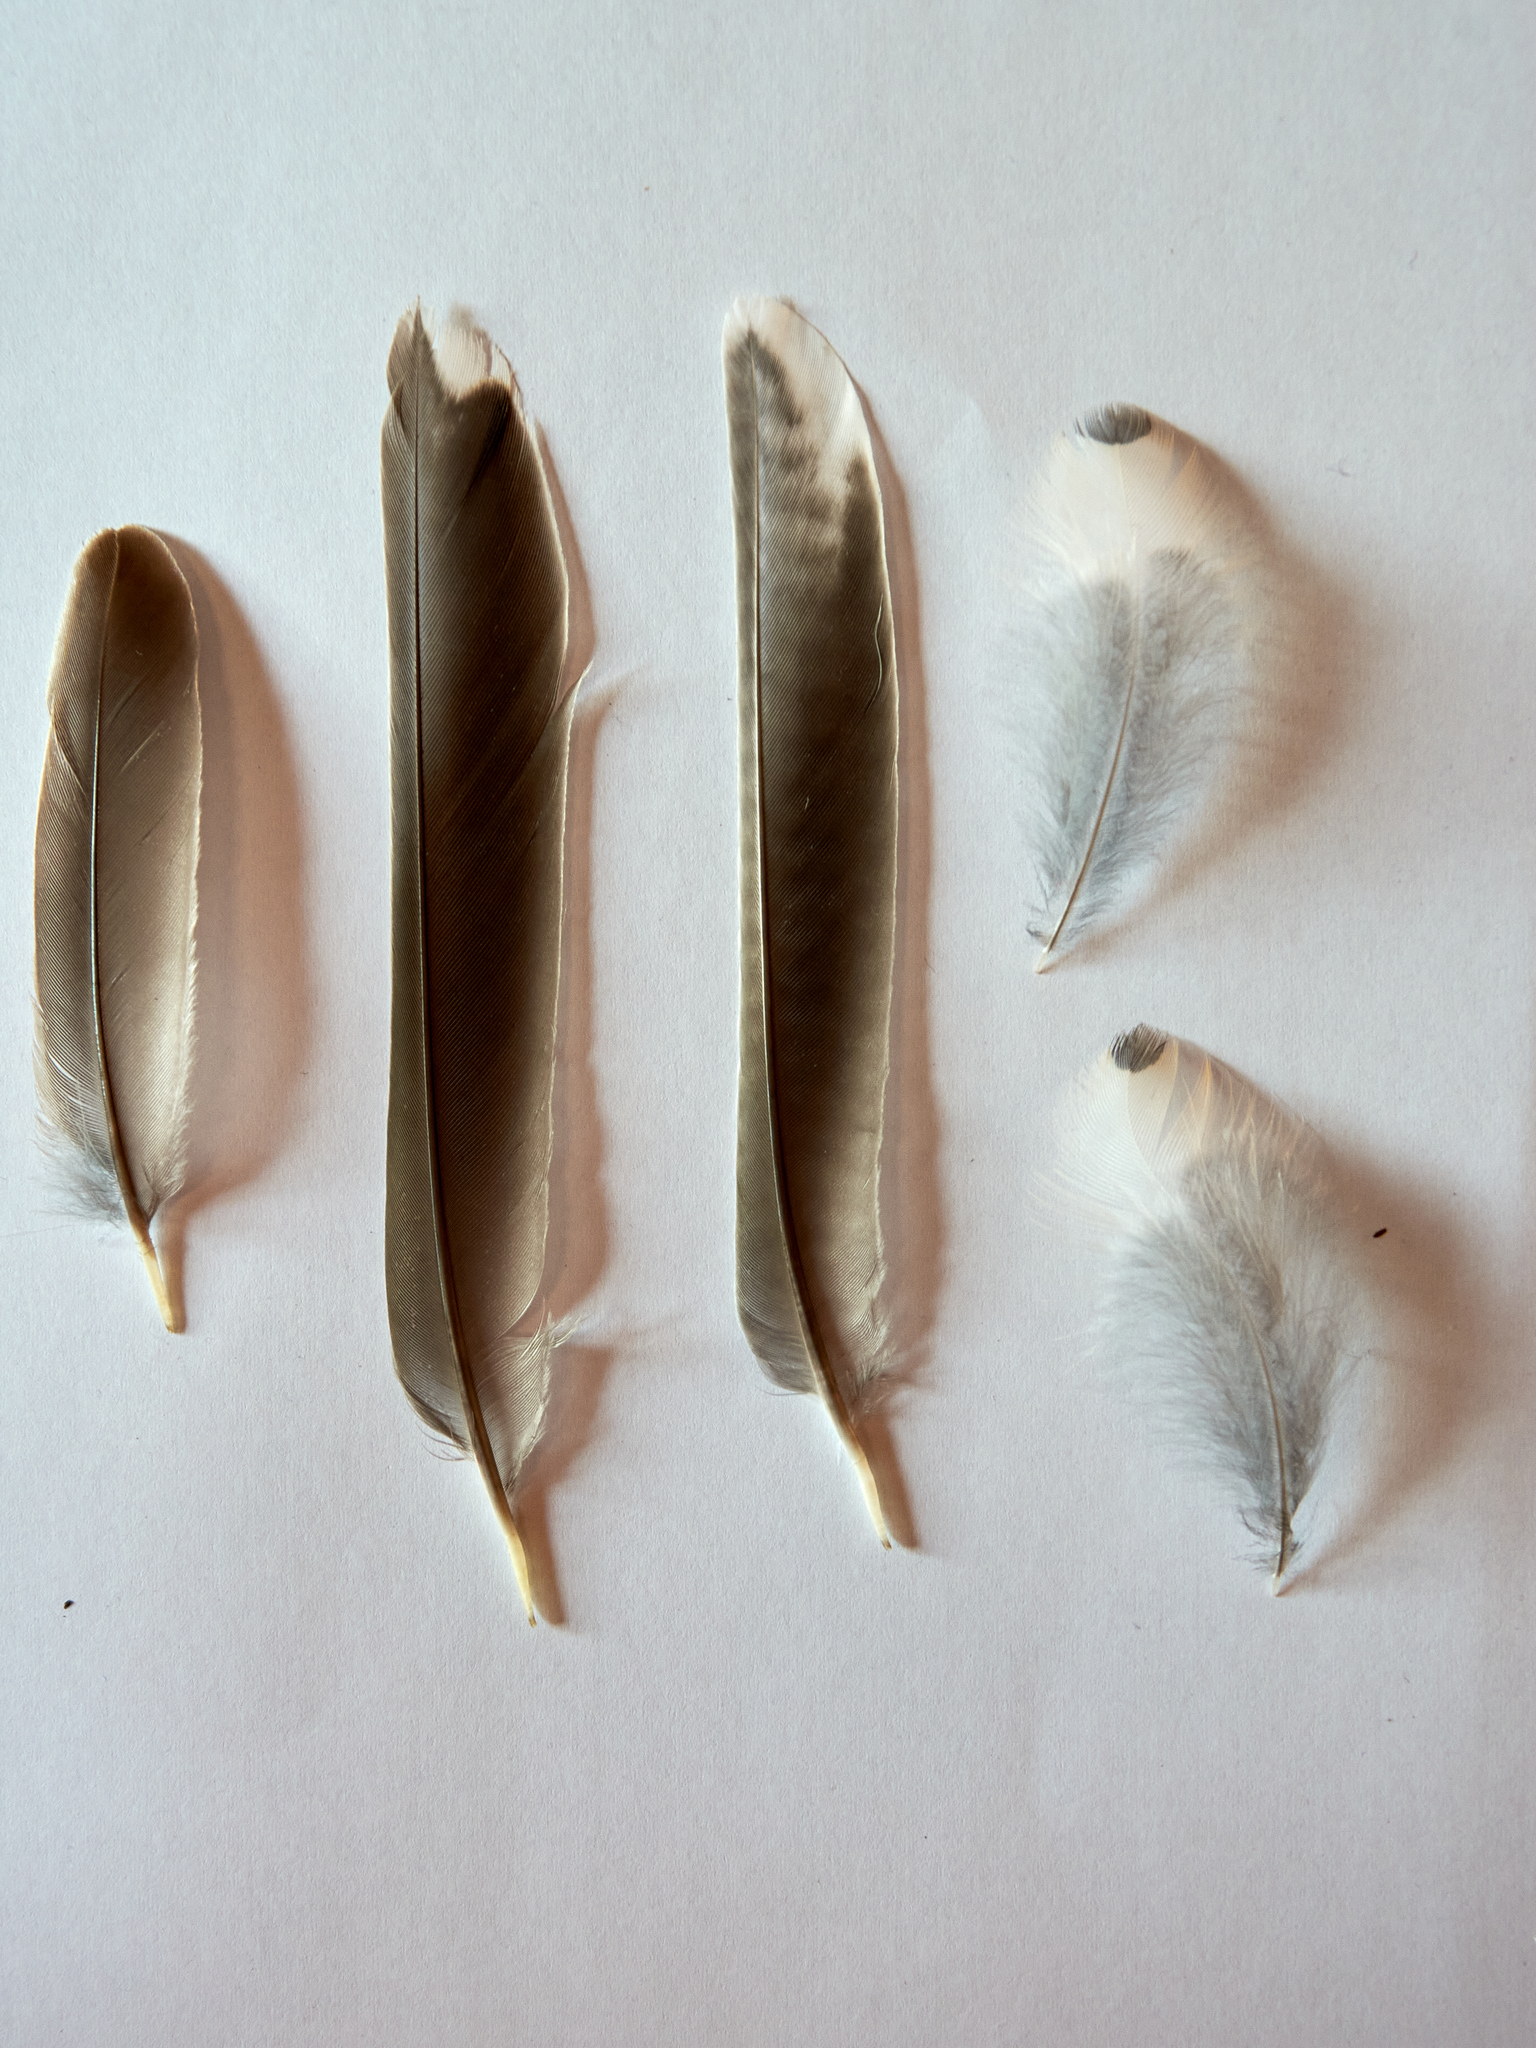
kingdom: Animalia
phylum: Chordata
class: Aves
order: Passeriformes
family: Turdidae
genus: Turdus
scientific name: Turdus viscivorus
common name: Mistle thrush
